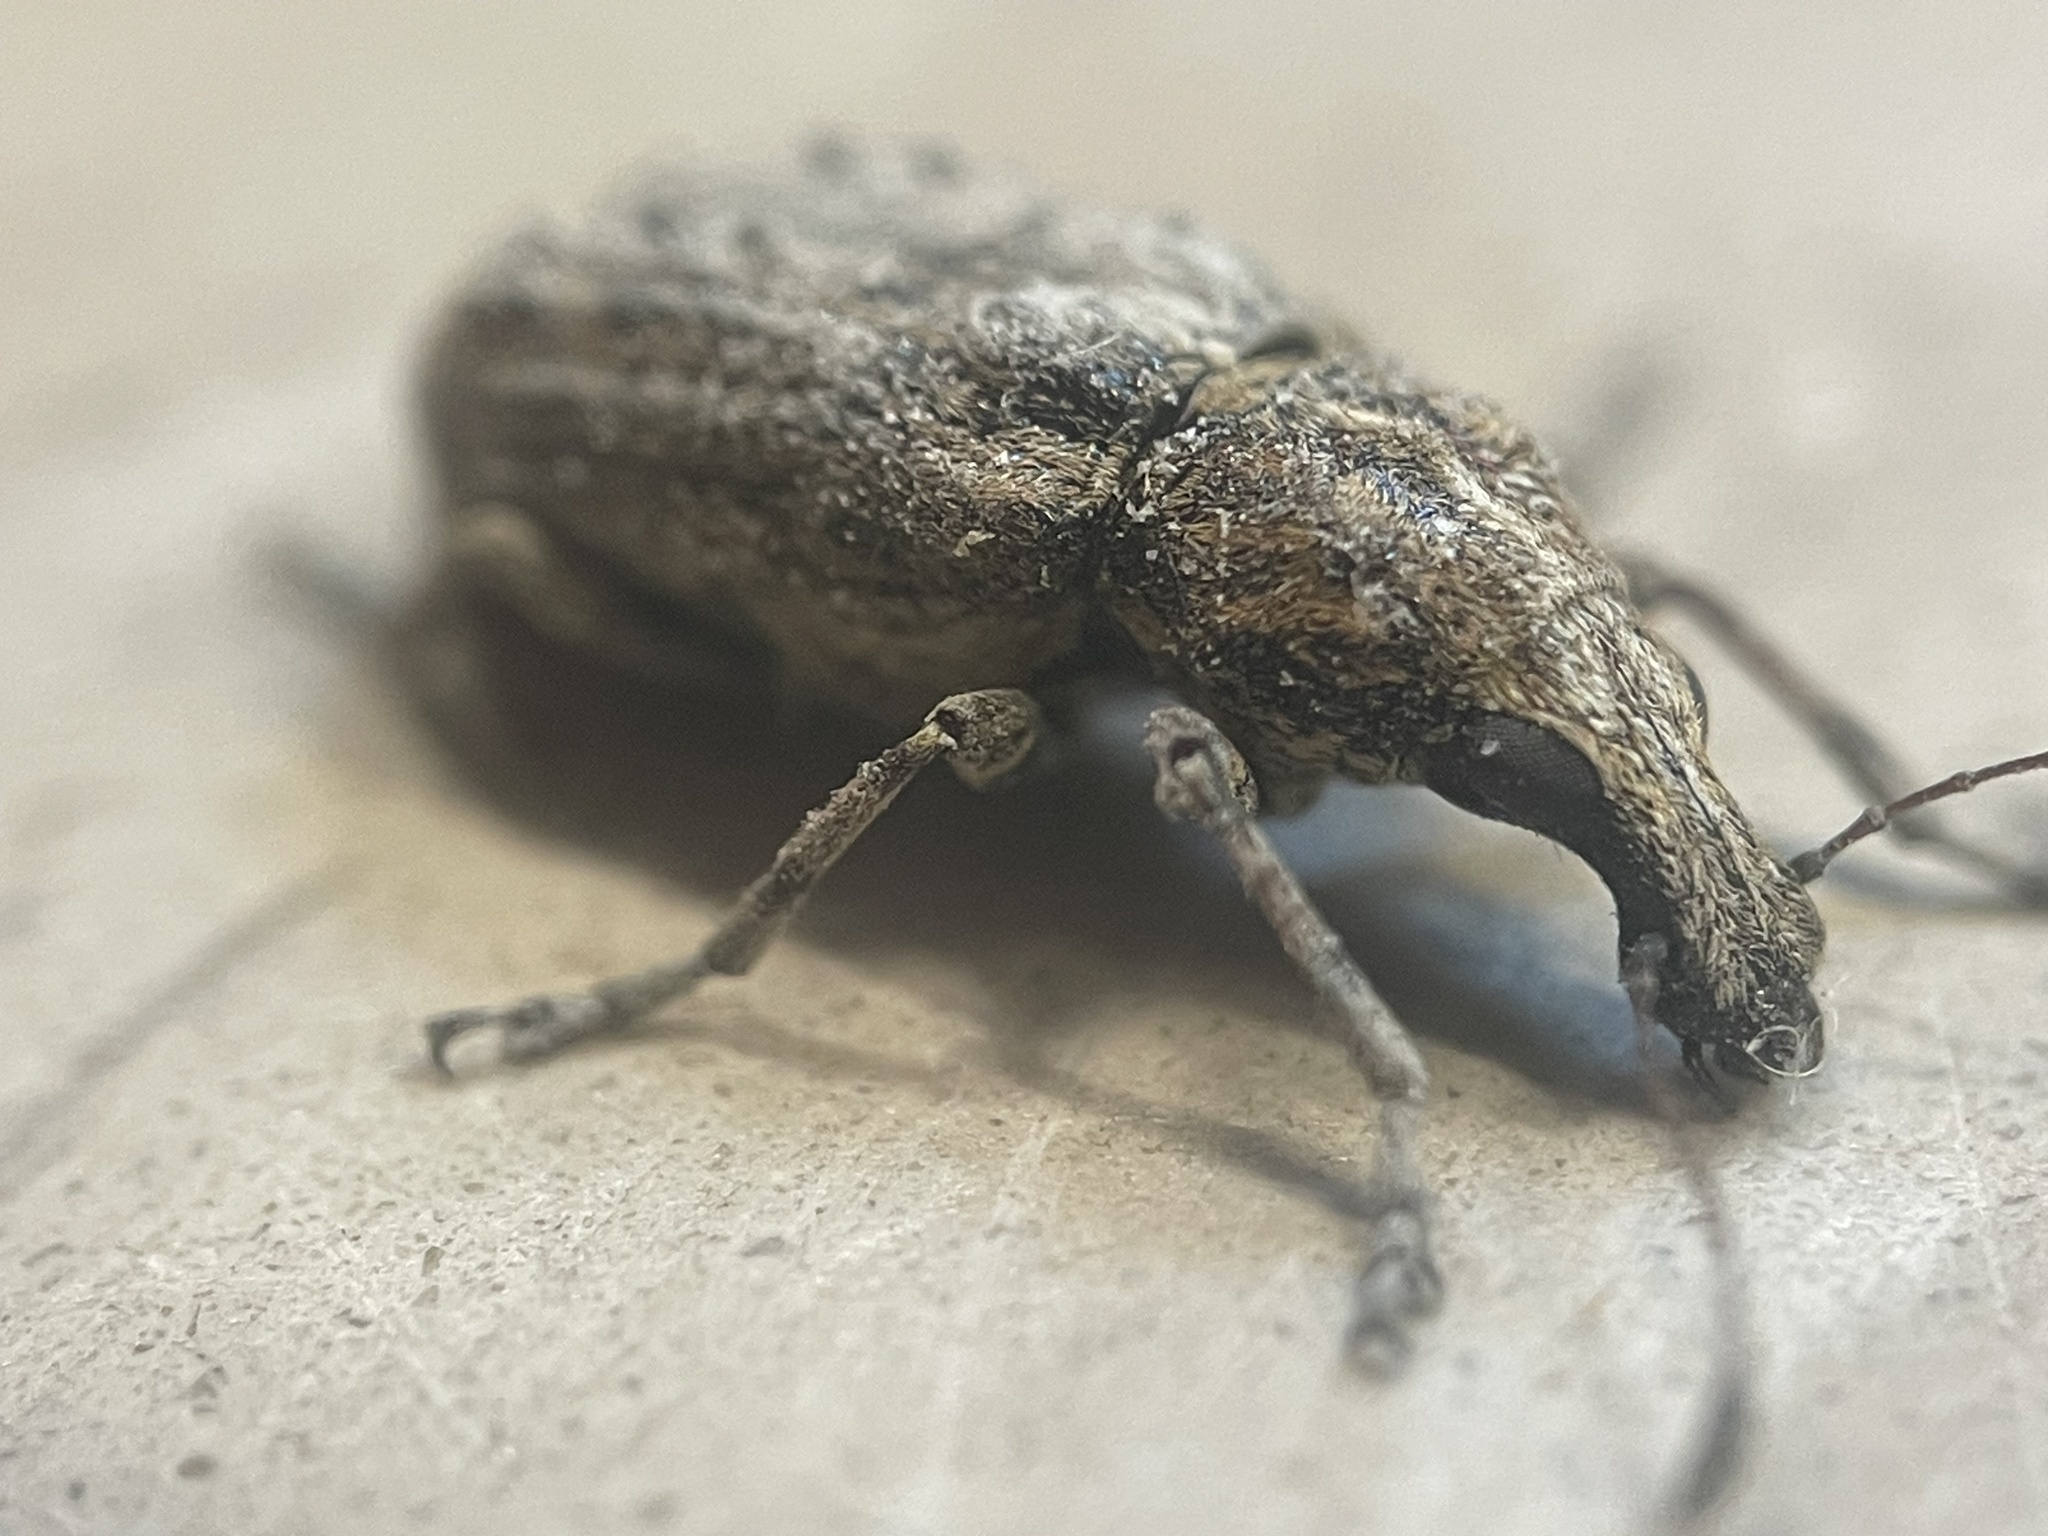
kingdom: Animalia
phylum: Arthropoda
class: Insecta
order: Coleoptera
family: Anthribidae
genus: Meconemus
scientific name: Meconemus infuscatus
